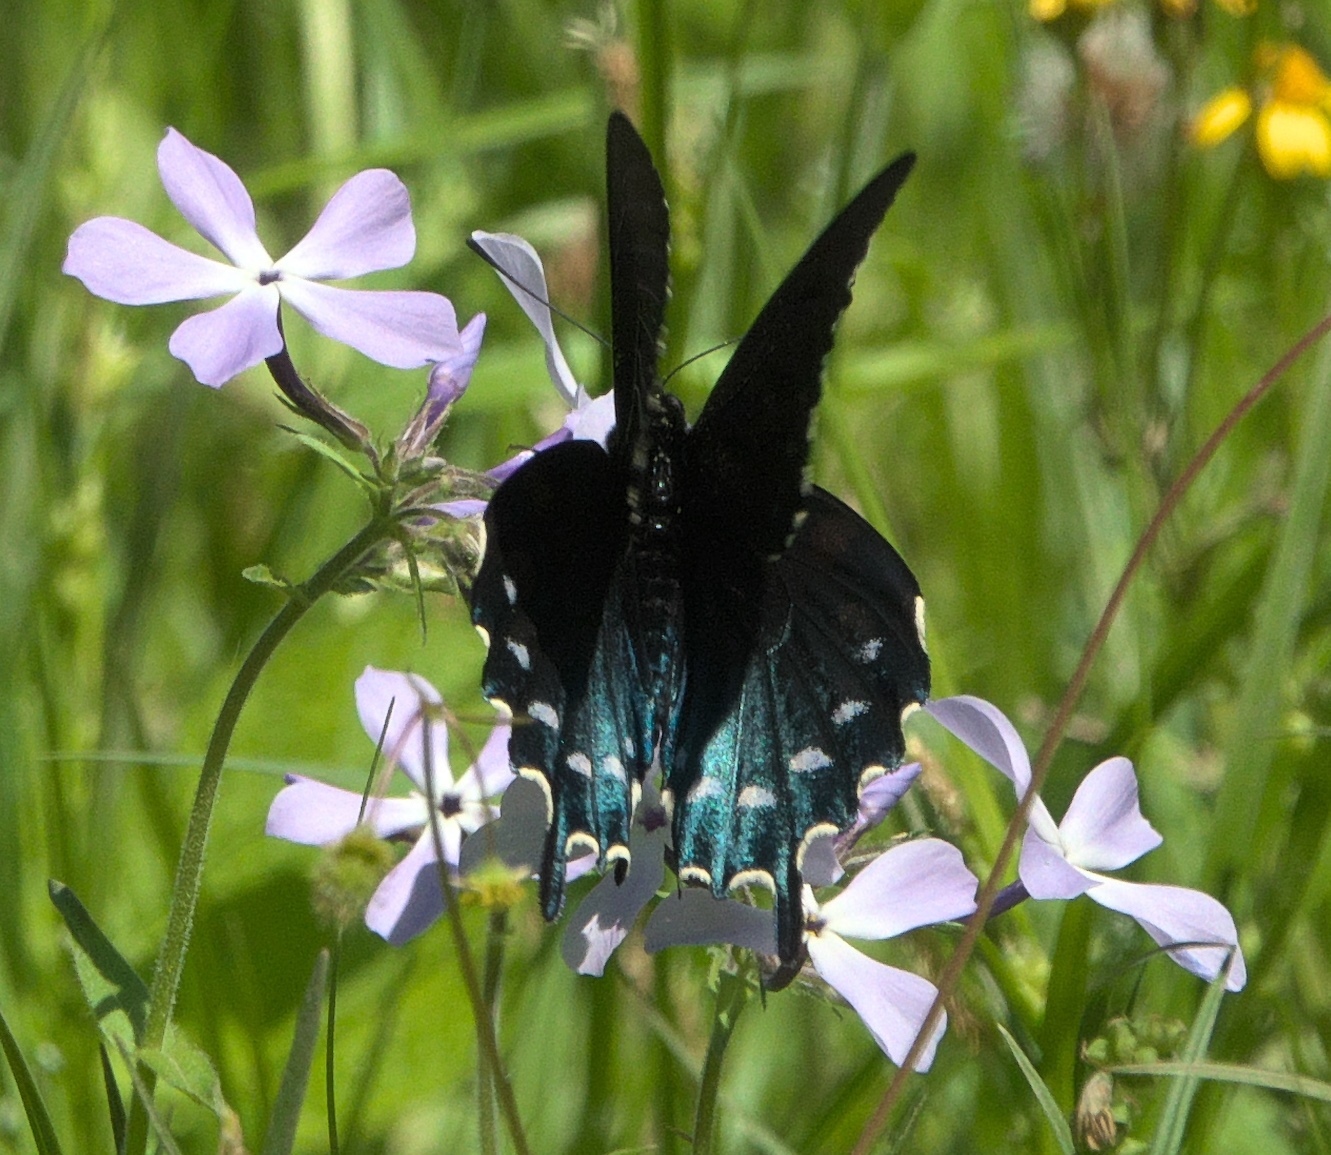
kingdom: Animalia
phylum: Arthropoda
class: Insecta
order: Lepidoptera
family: Papilionidae
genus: Battus
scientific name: Battus philenor
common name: Pipevine swallowtail
